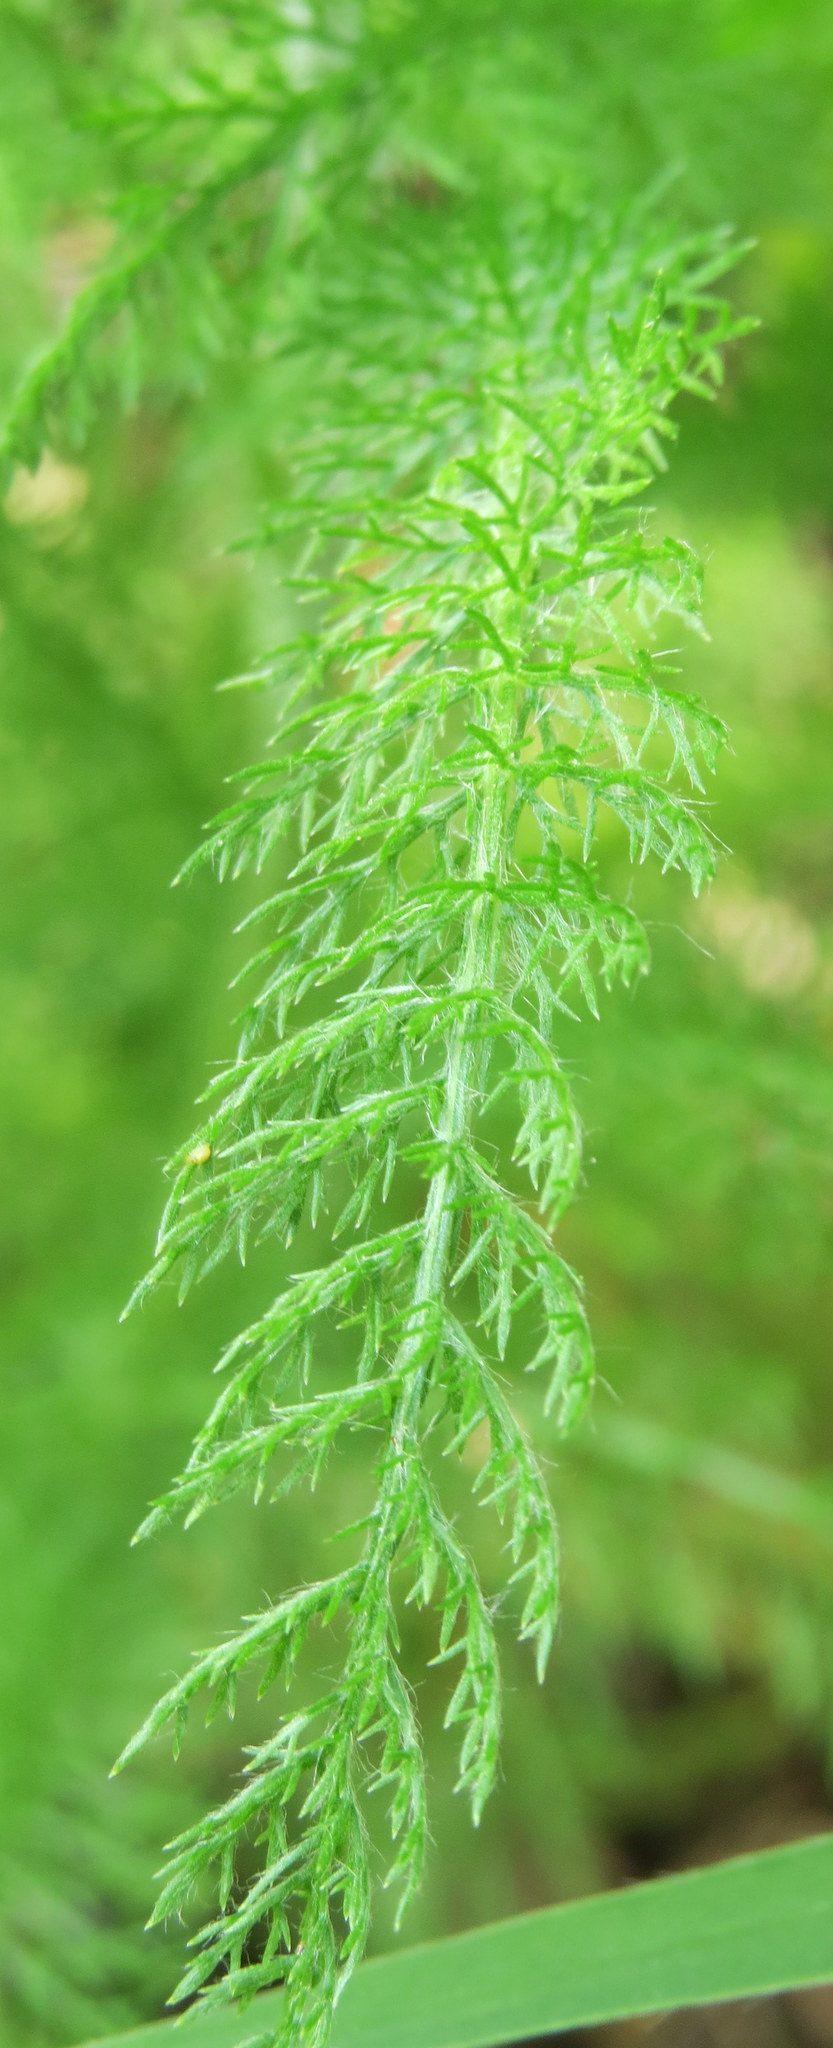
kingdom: Plantae
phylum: Tracheophyta
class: Magnoliopsida
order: Asterales
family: Asteraceae
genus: Achillea
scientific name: Achillea millefolium
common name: Yarrow
